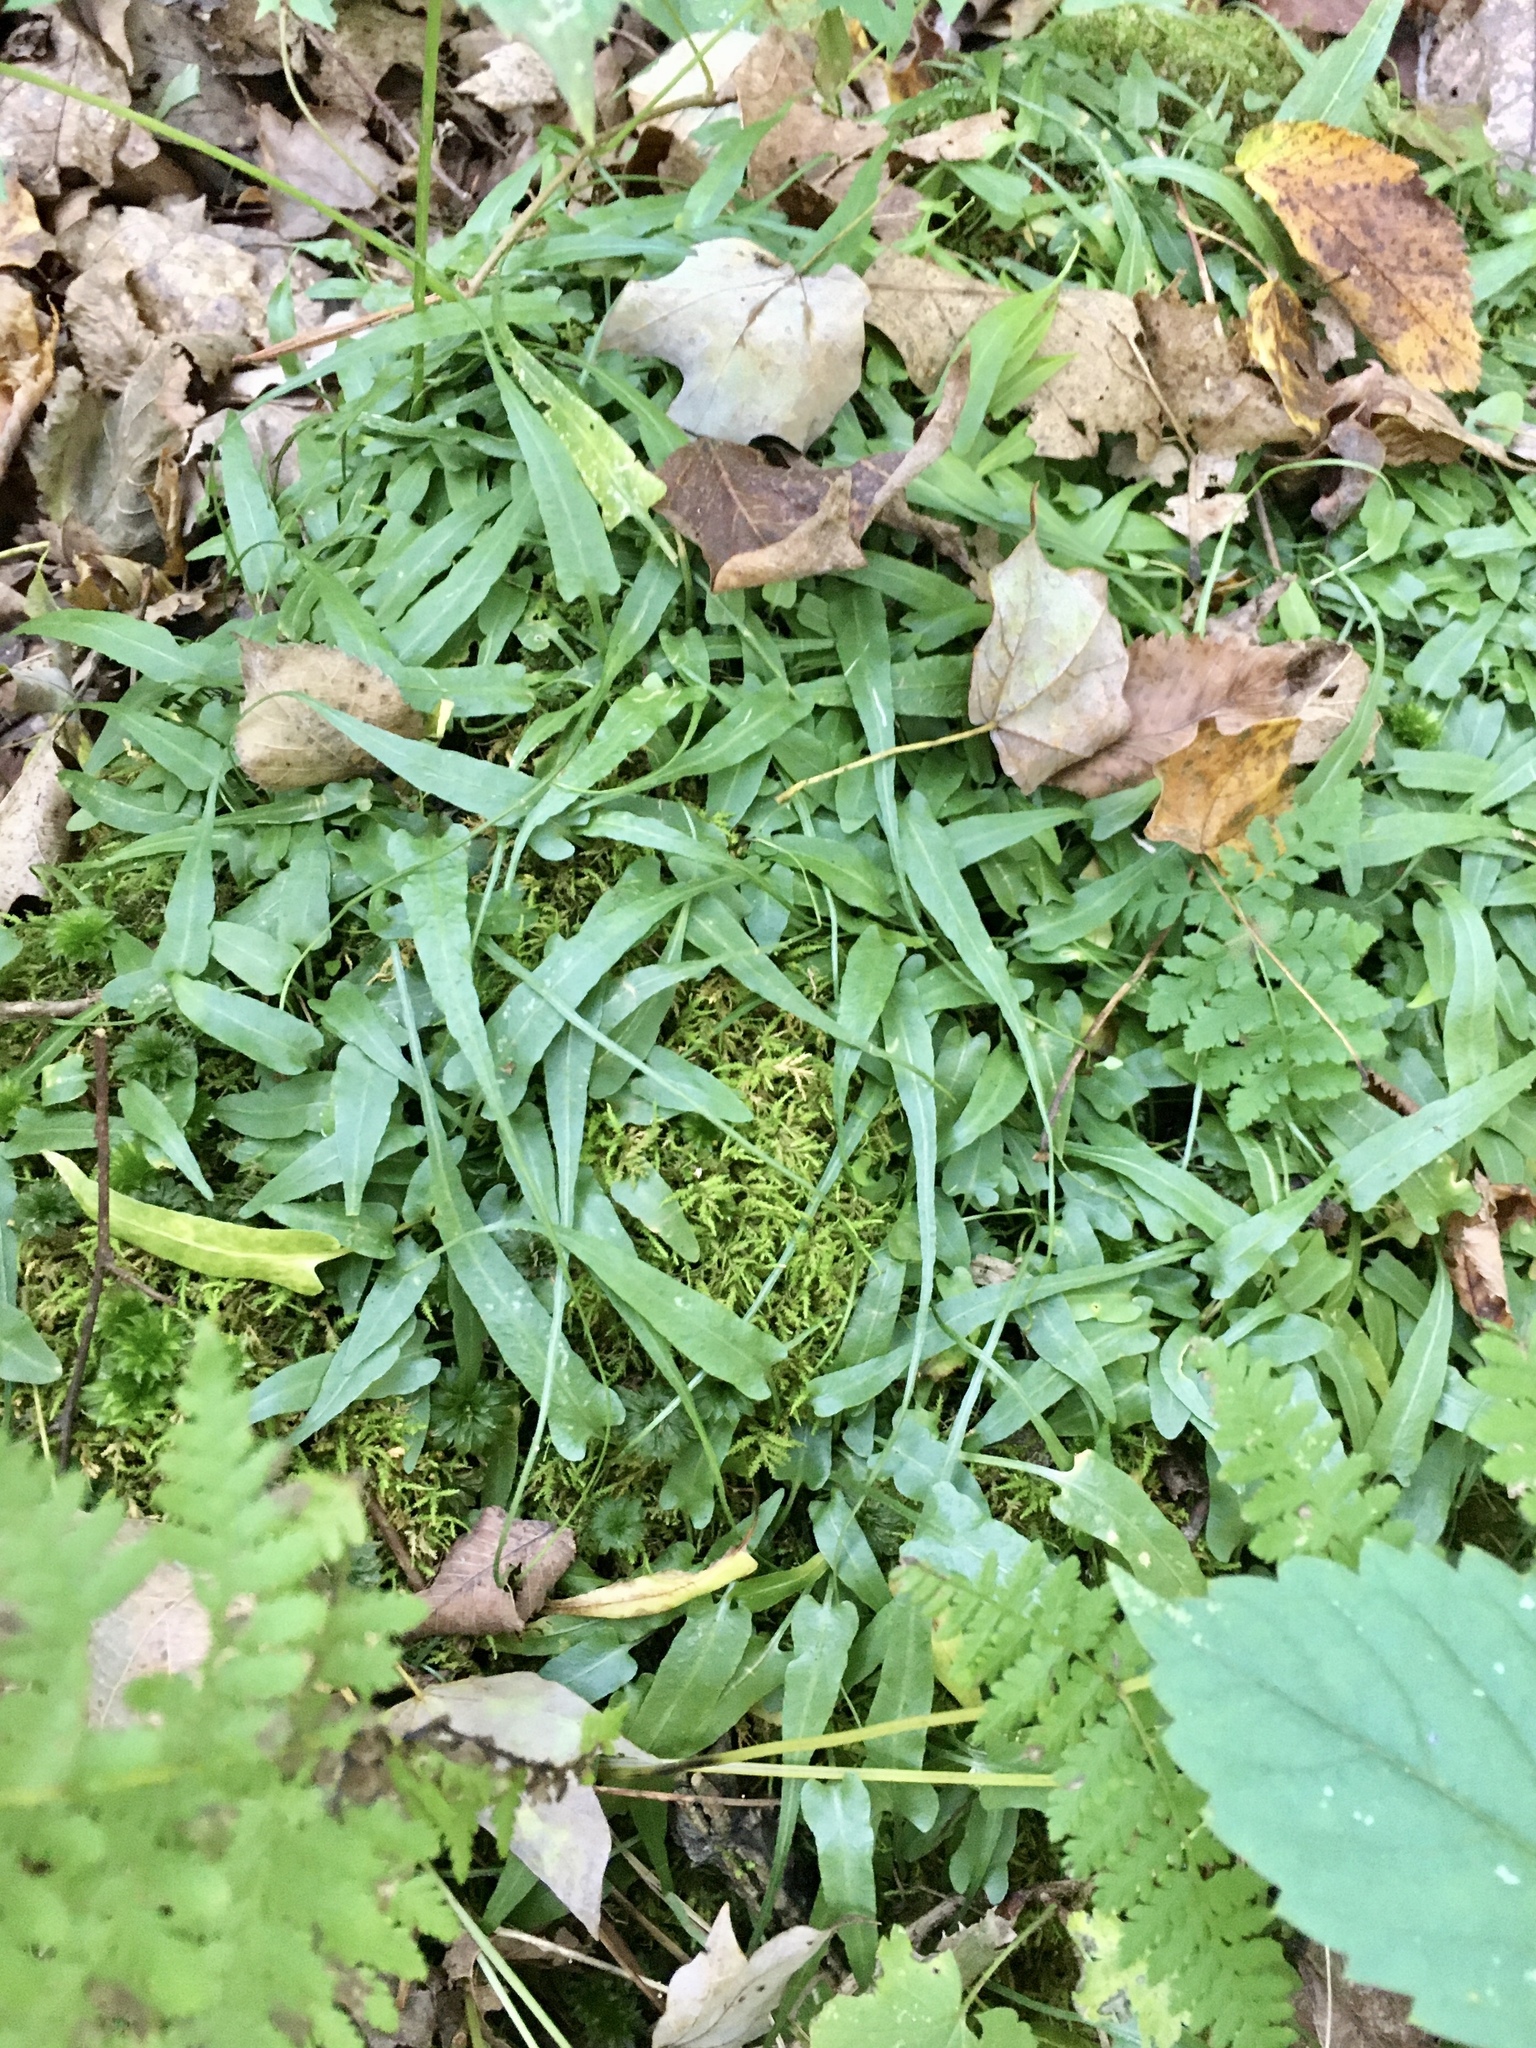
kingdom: Plantae
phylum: Tracheophyta
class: Polypodiopsida
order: Polypodiales
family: Aspleniaceae
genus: Asplenium
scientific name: Asplenium rhizophyllum
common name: Walking fern
